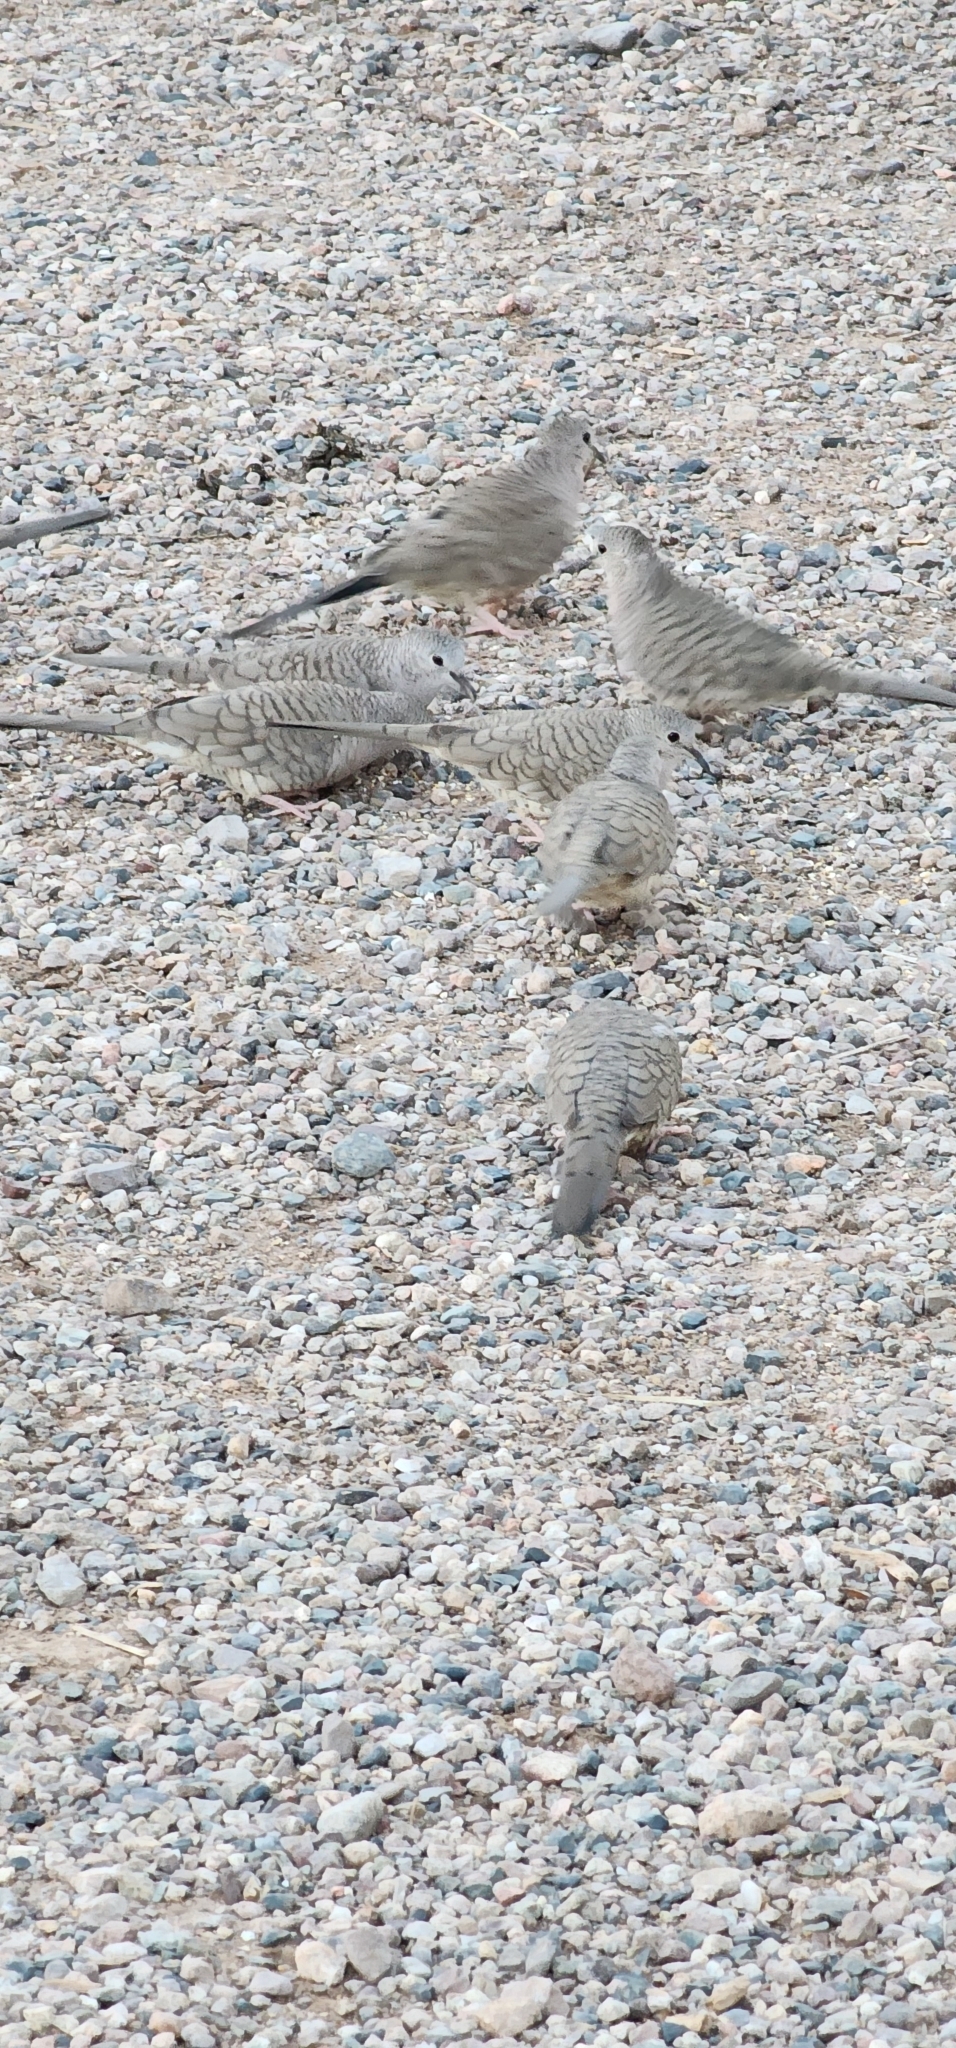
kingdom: Animalia
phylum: Chordata
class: Aves
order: Columbiformes
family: Columbidae
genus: Columbina
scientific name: Columbina inca
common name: Inca dove
